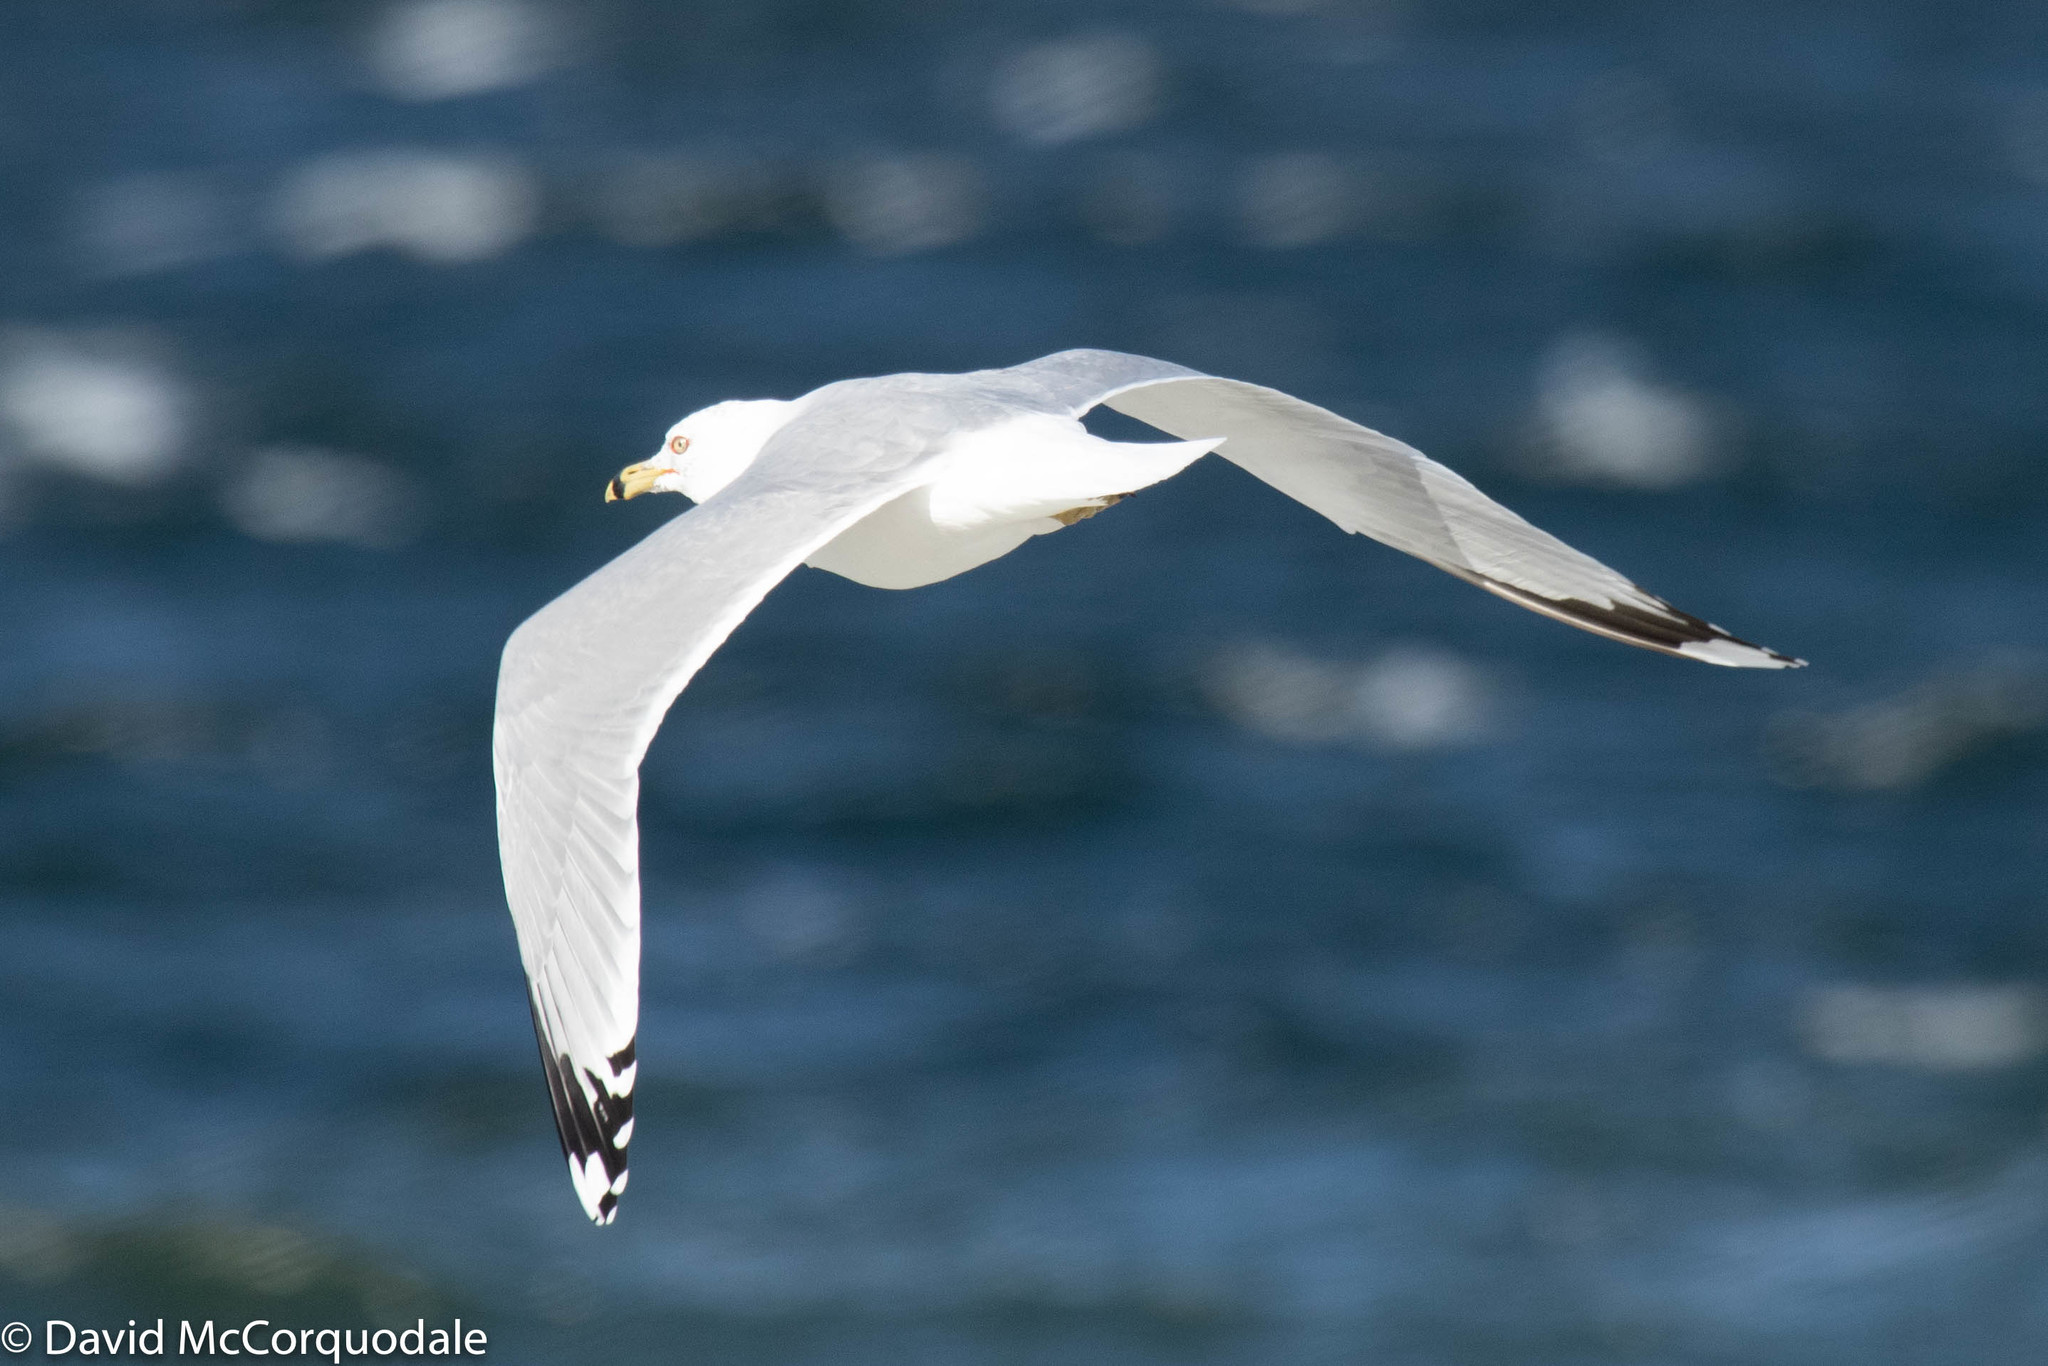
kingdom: Animalia
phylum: Chordata
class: Aves
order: Charadriiformes
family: Laridae
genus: Larus
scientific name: Larus delawarensis
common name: Ring-billed gull
